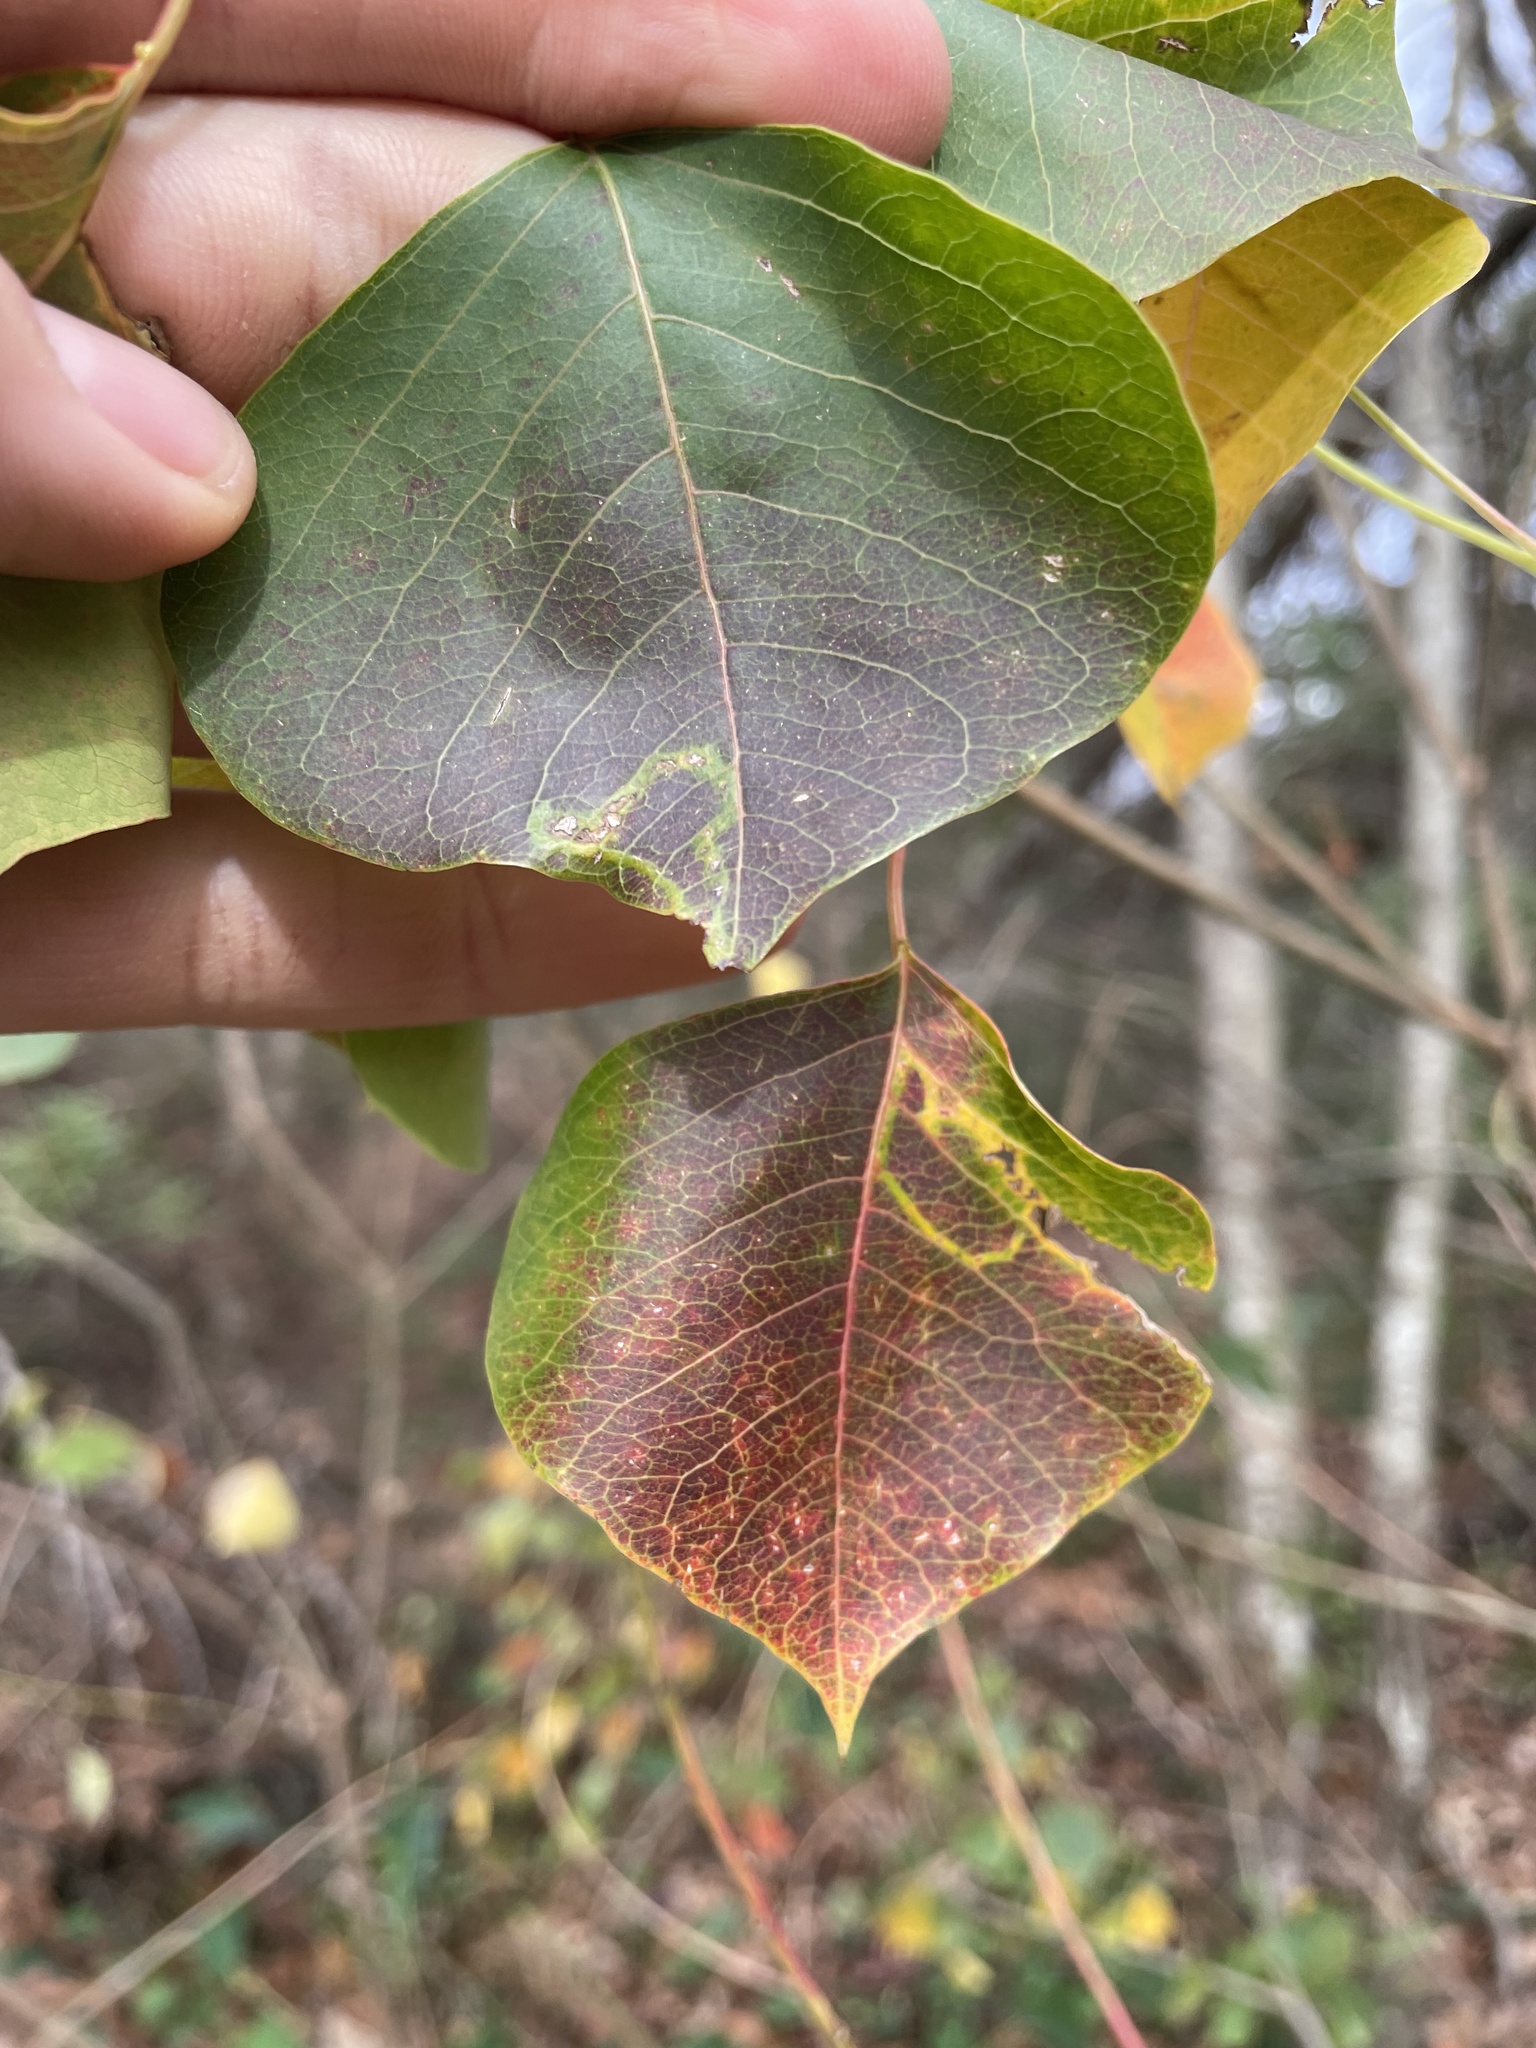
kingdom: Animalia
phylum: Arthropoda
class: Insecta
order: Lepidoptera
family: Gracillariidae
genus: Caloptilia
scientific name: Caloptilia triadicae
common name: Tallow leaf roller
